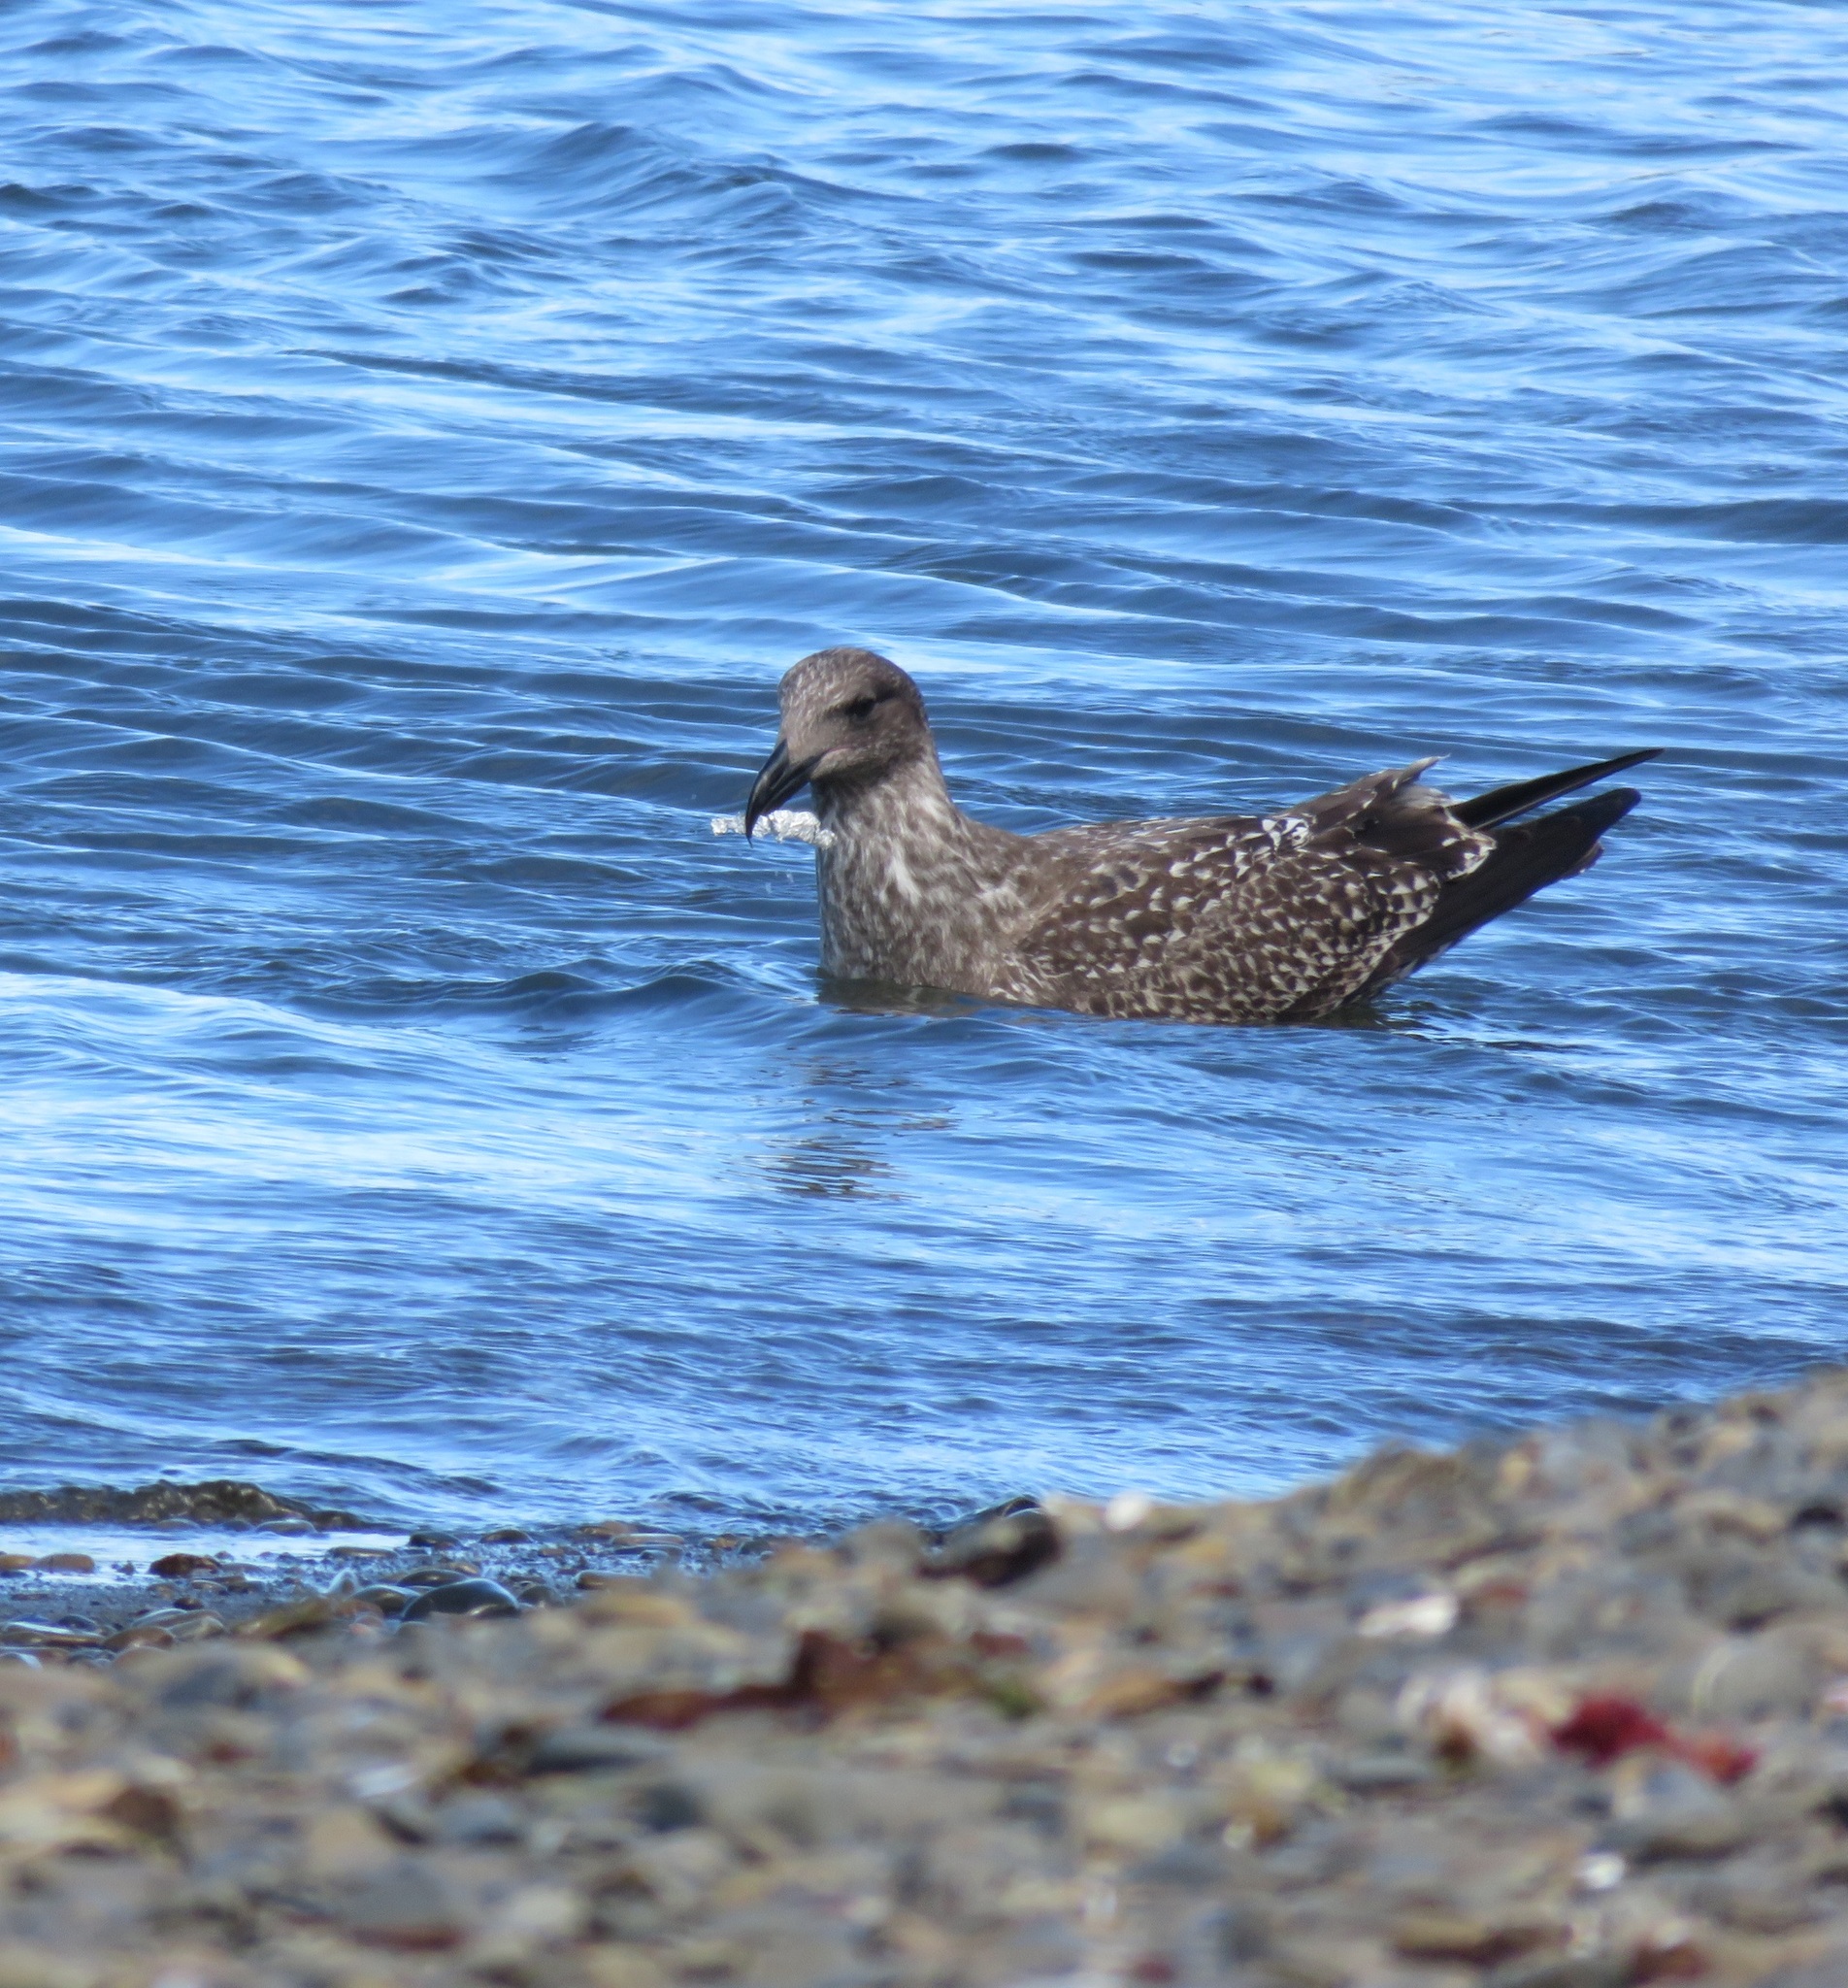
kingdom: Animalia
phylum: Chordata
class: Aves
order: Charadriiformes
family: Laridae
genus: Larus
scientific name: Larus dominicanus
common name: Kelp gull
